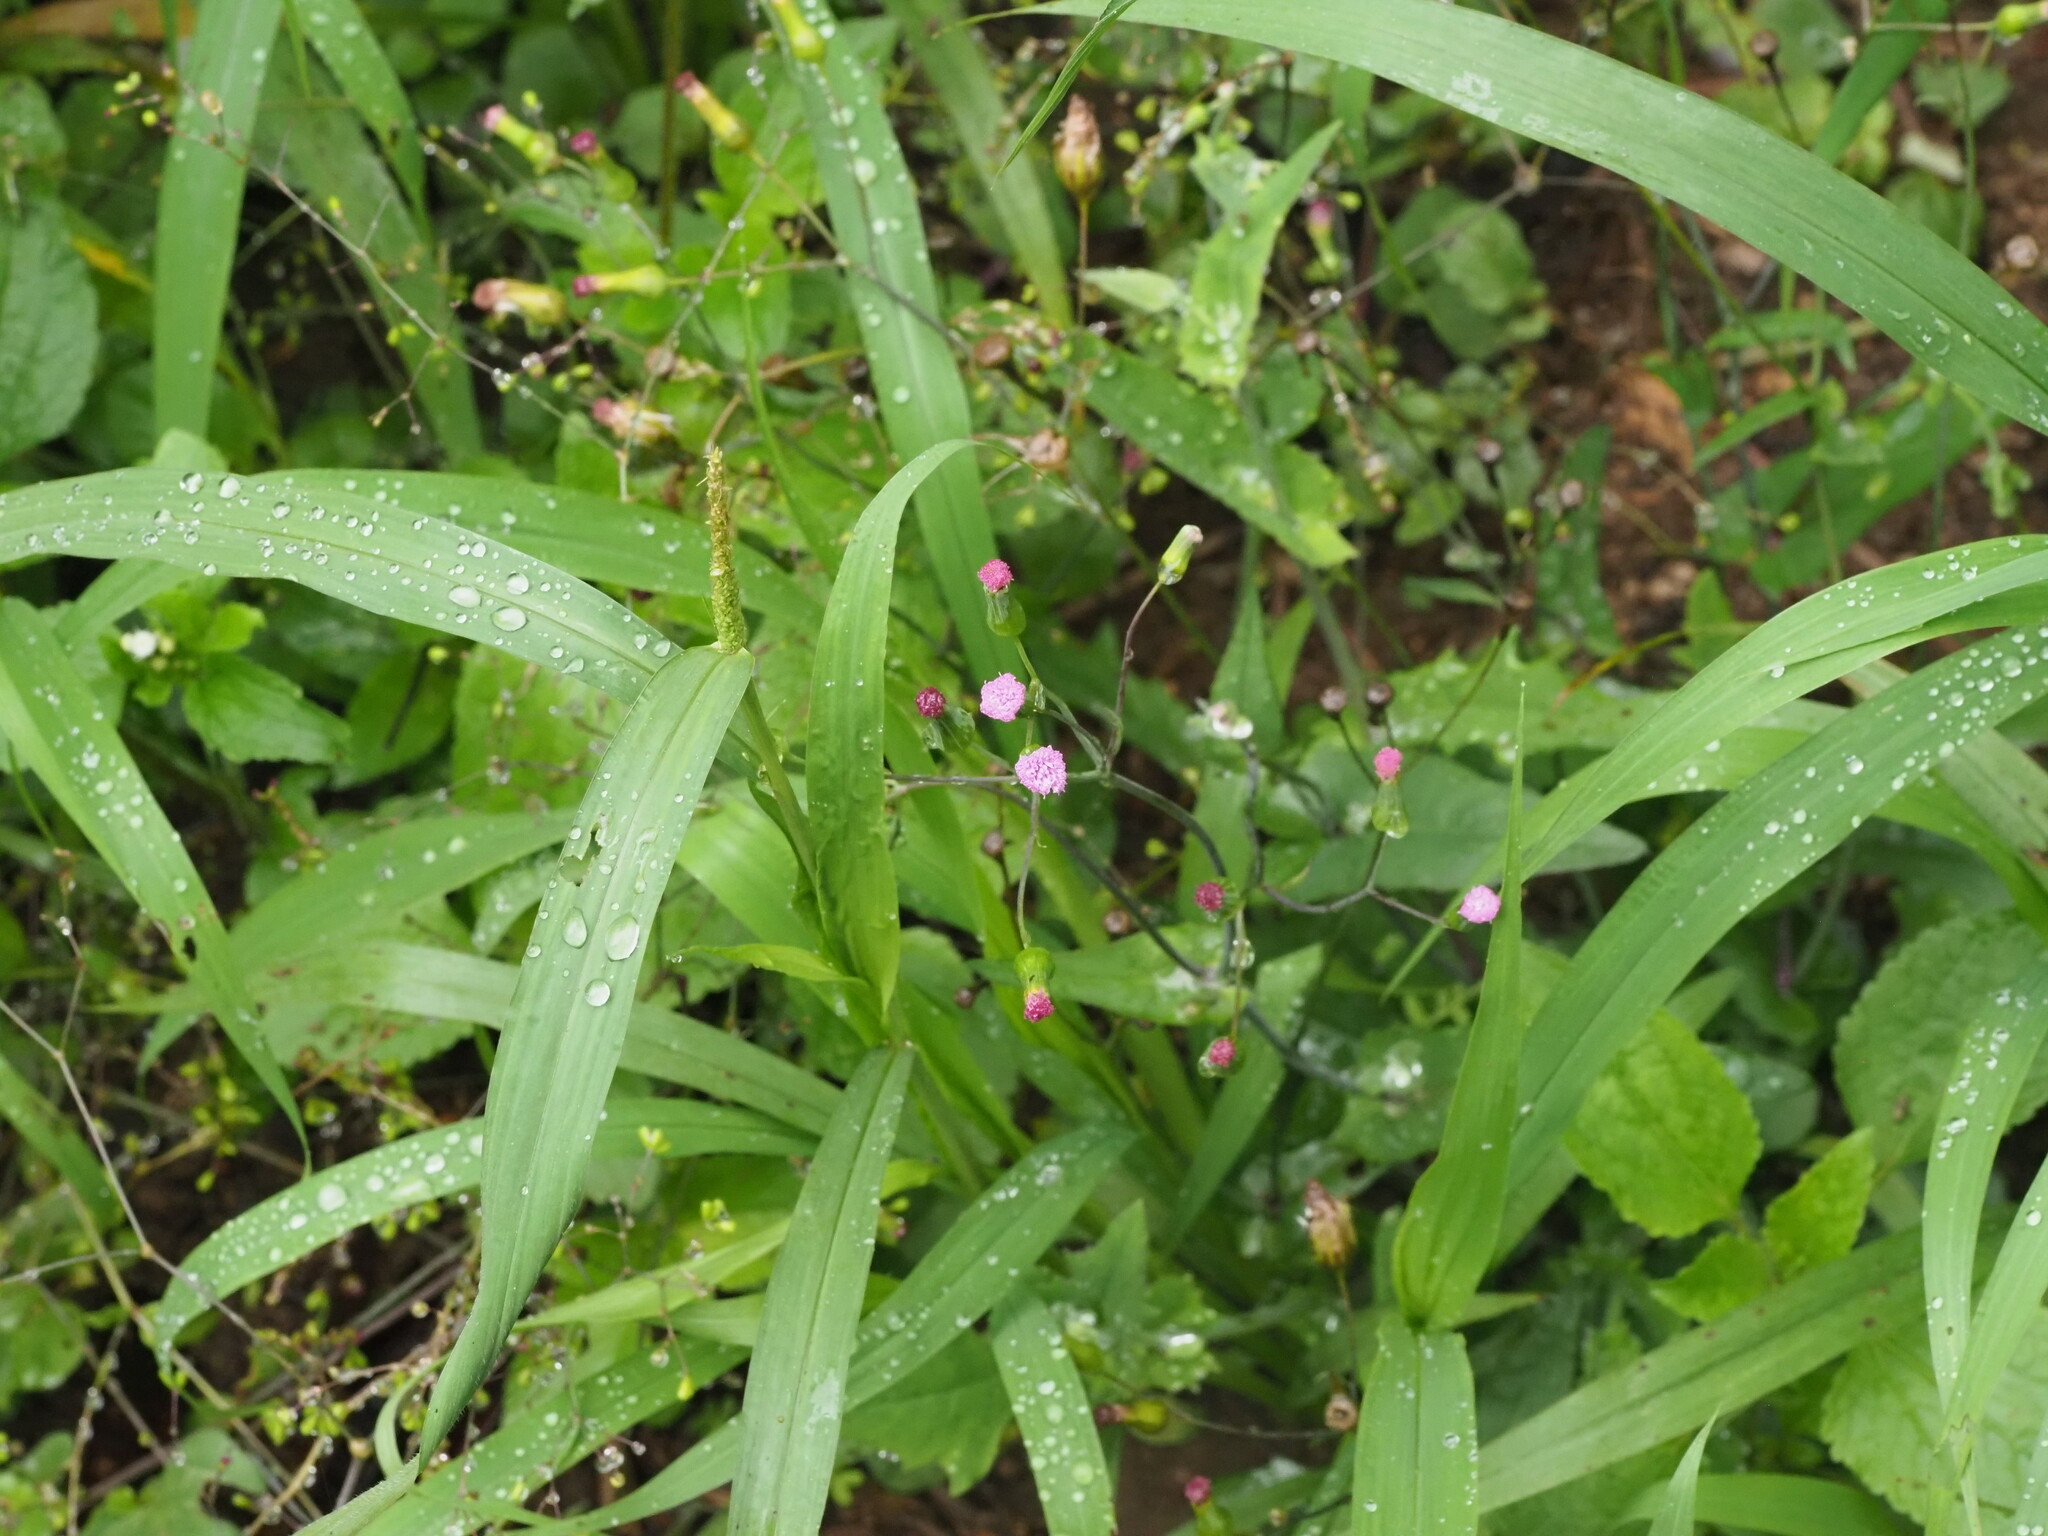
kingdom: Plantae
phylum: Tracheophyta
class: Magnoliopsida
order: Asterales
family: Asteraceae
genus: Emilia
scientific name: Emilia sonchifolia
